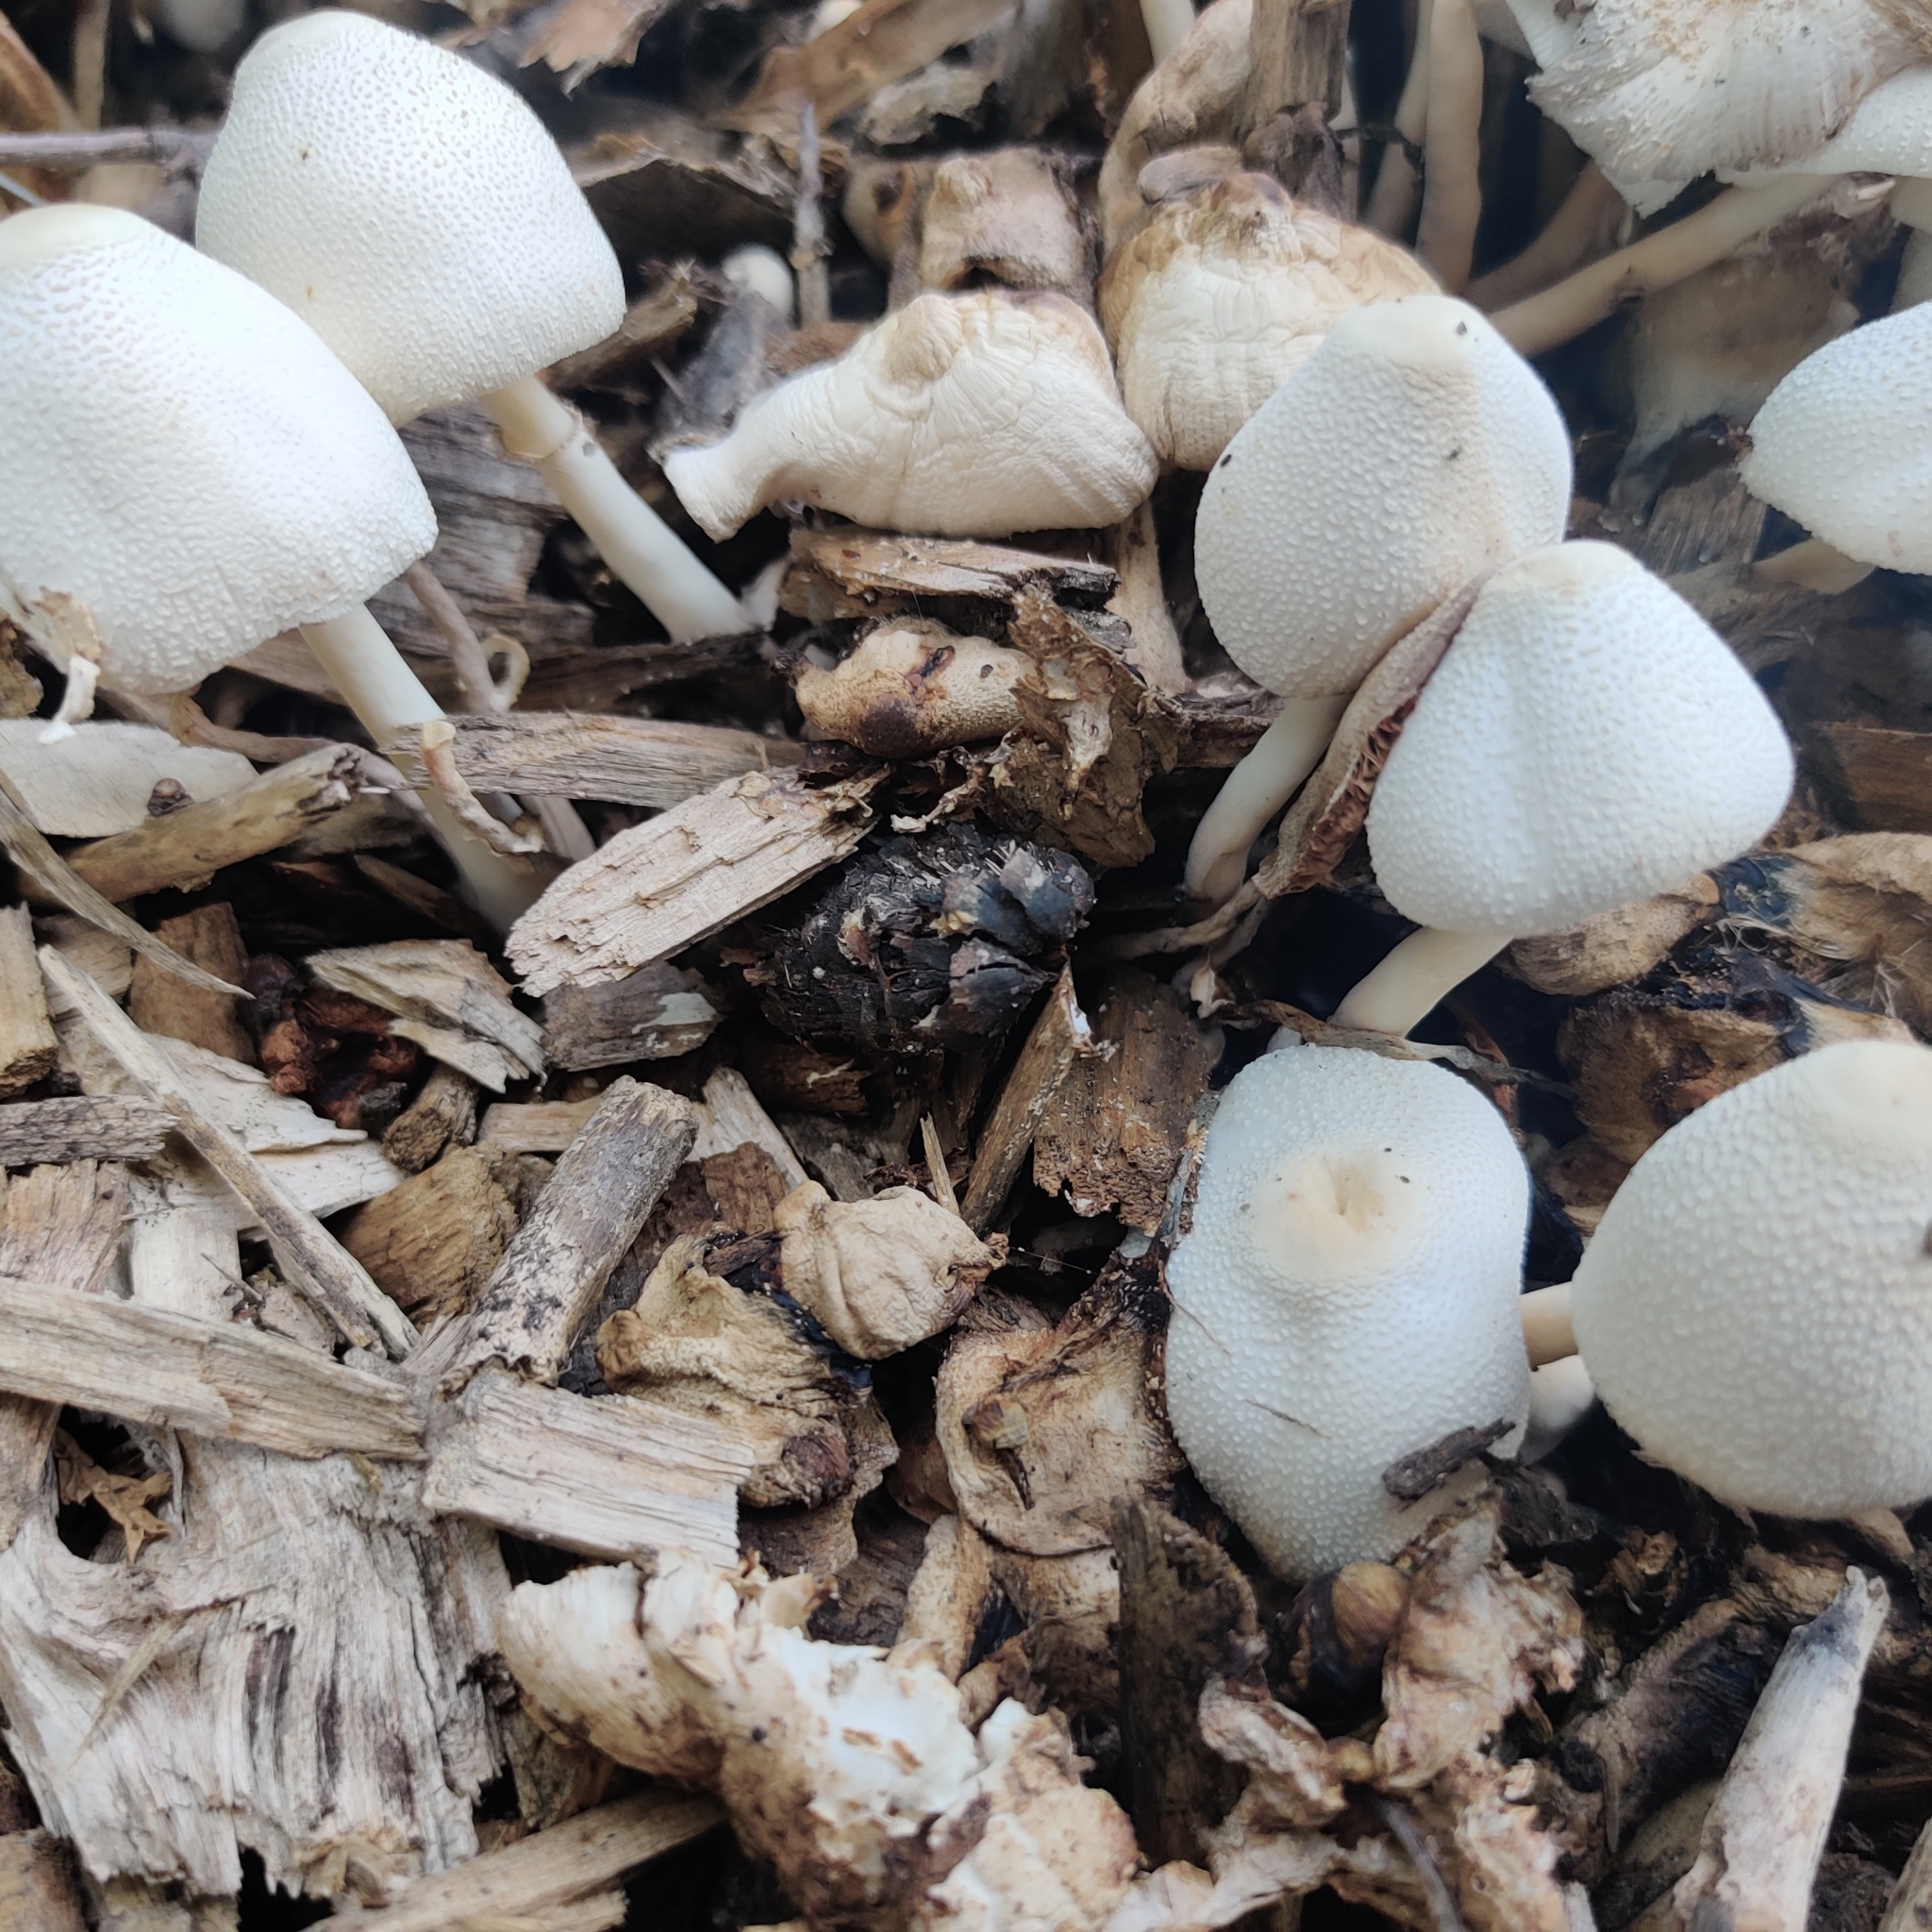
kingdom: Fungi
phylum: Basidiomycota
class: Agaricomycetes
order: Agaricales
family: Agaricaceae
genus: Leucocoprinus
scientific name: Leucocoprinus cepistipes
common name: Onion-stalk parasol
